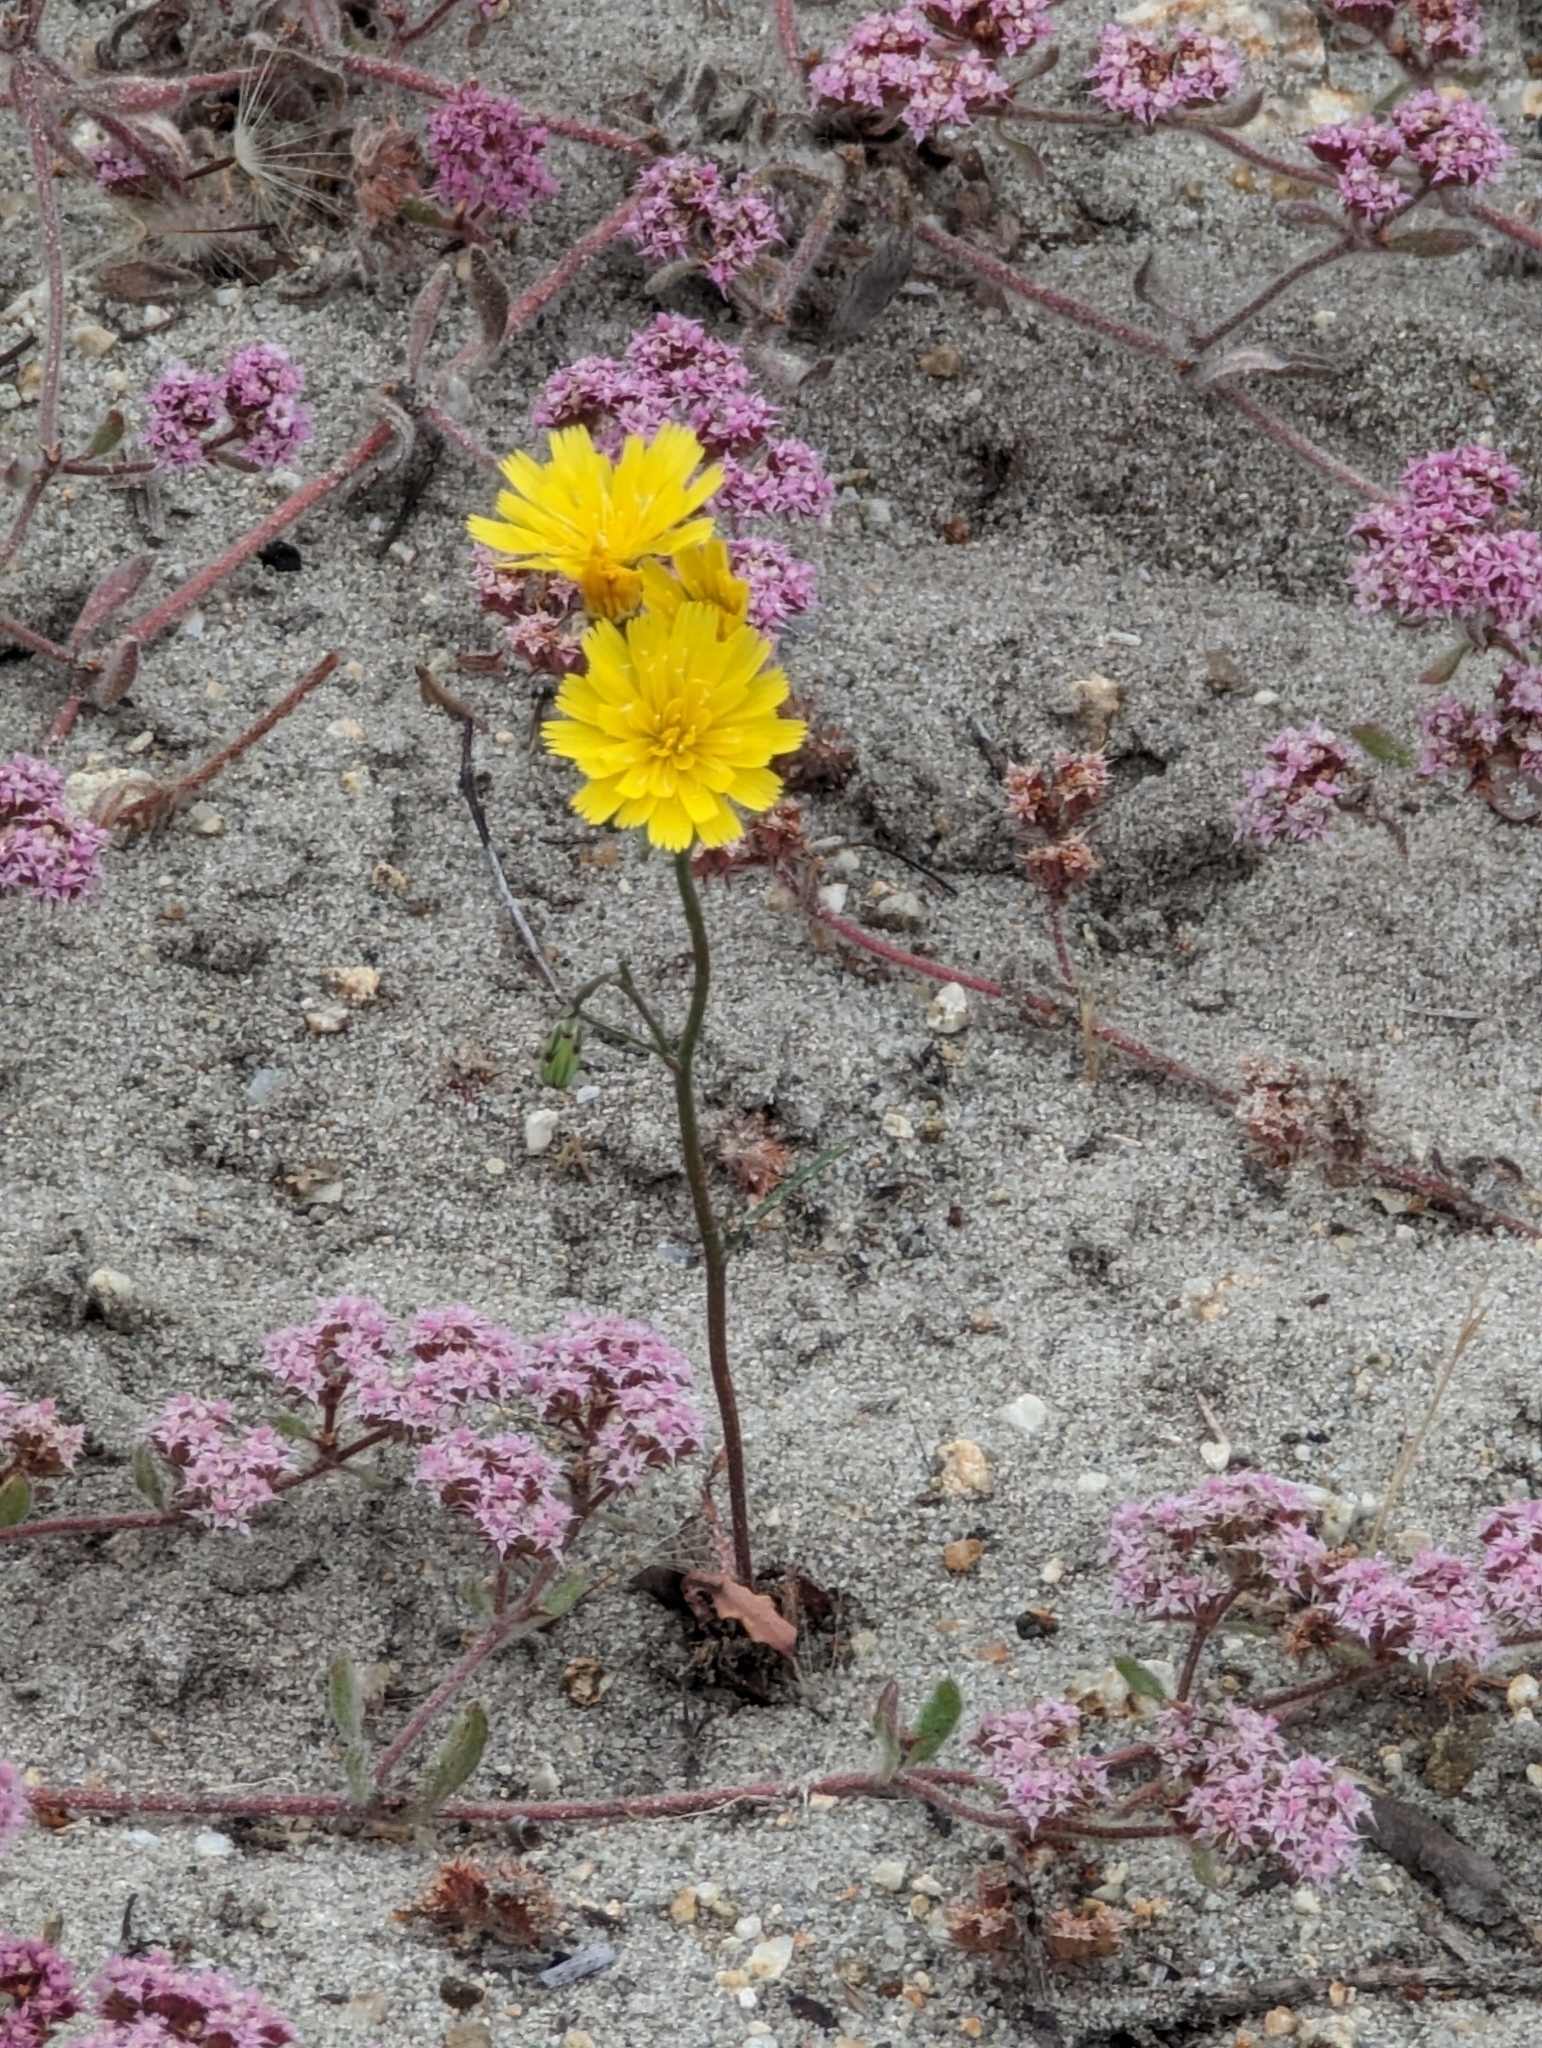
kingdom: Plantae
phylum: Tracheophyta
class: Magnoliopsida
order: Asterales
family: Asteraceae
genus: Malacothrix
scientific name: Malacothrix floccifera
